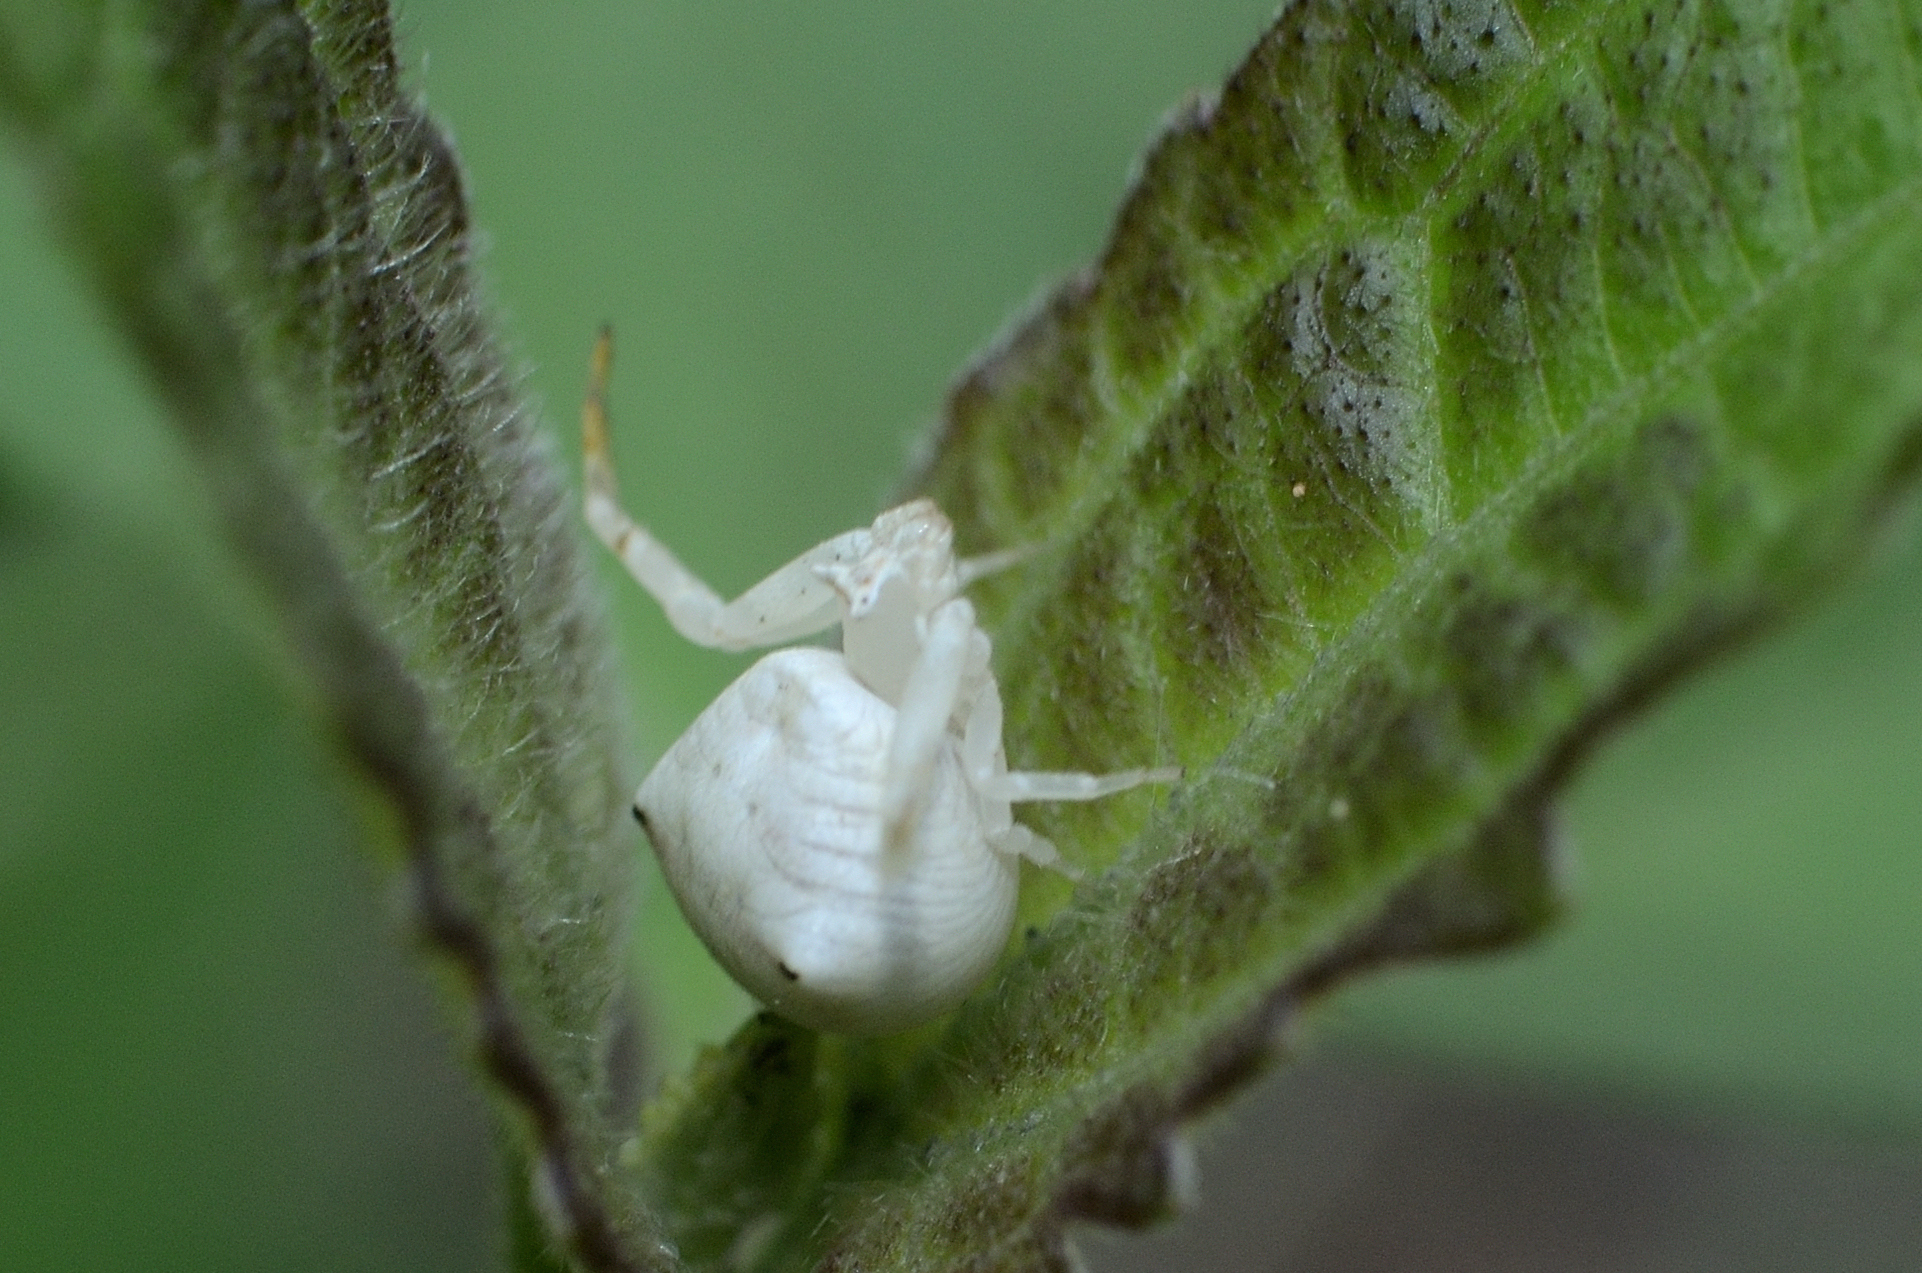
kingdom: Animalia
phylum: Arthropoda
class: Arachnida
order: Araneae
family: Thomisidae
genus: Thomisus
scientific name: Thomisus
